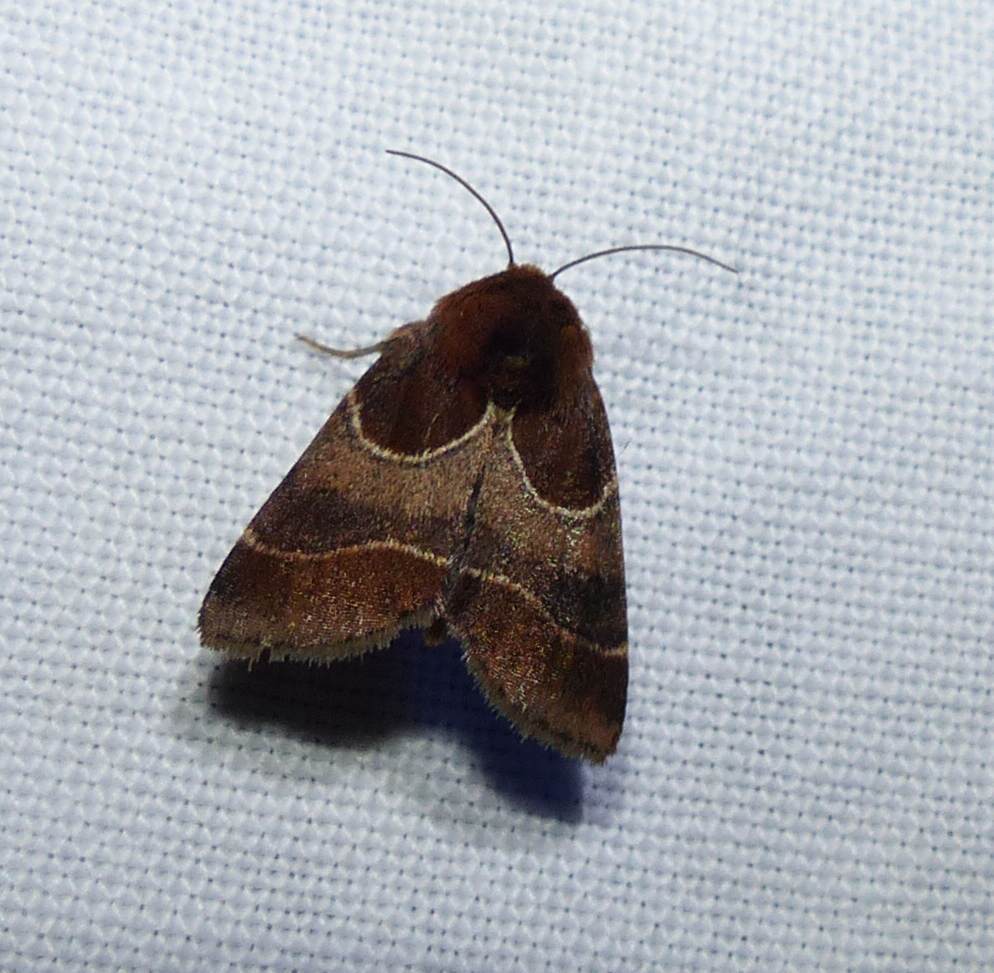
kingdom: Animalia
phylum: Arthropoda
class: Insecta
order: Lepidoptera
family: Noctuidae
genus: Schinia
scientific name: Schinia arcigera
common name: Arcigera flower moth
